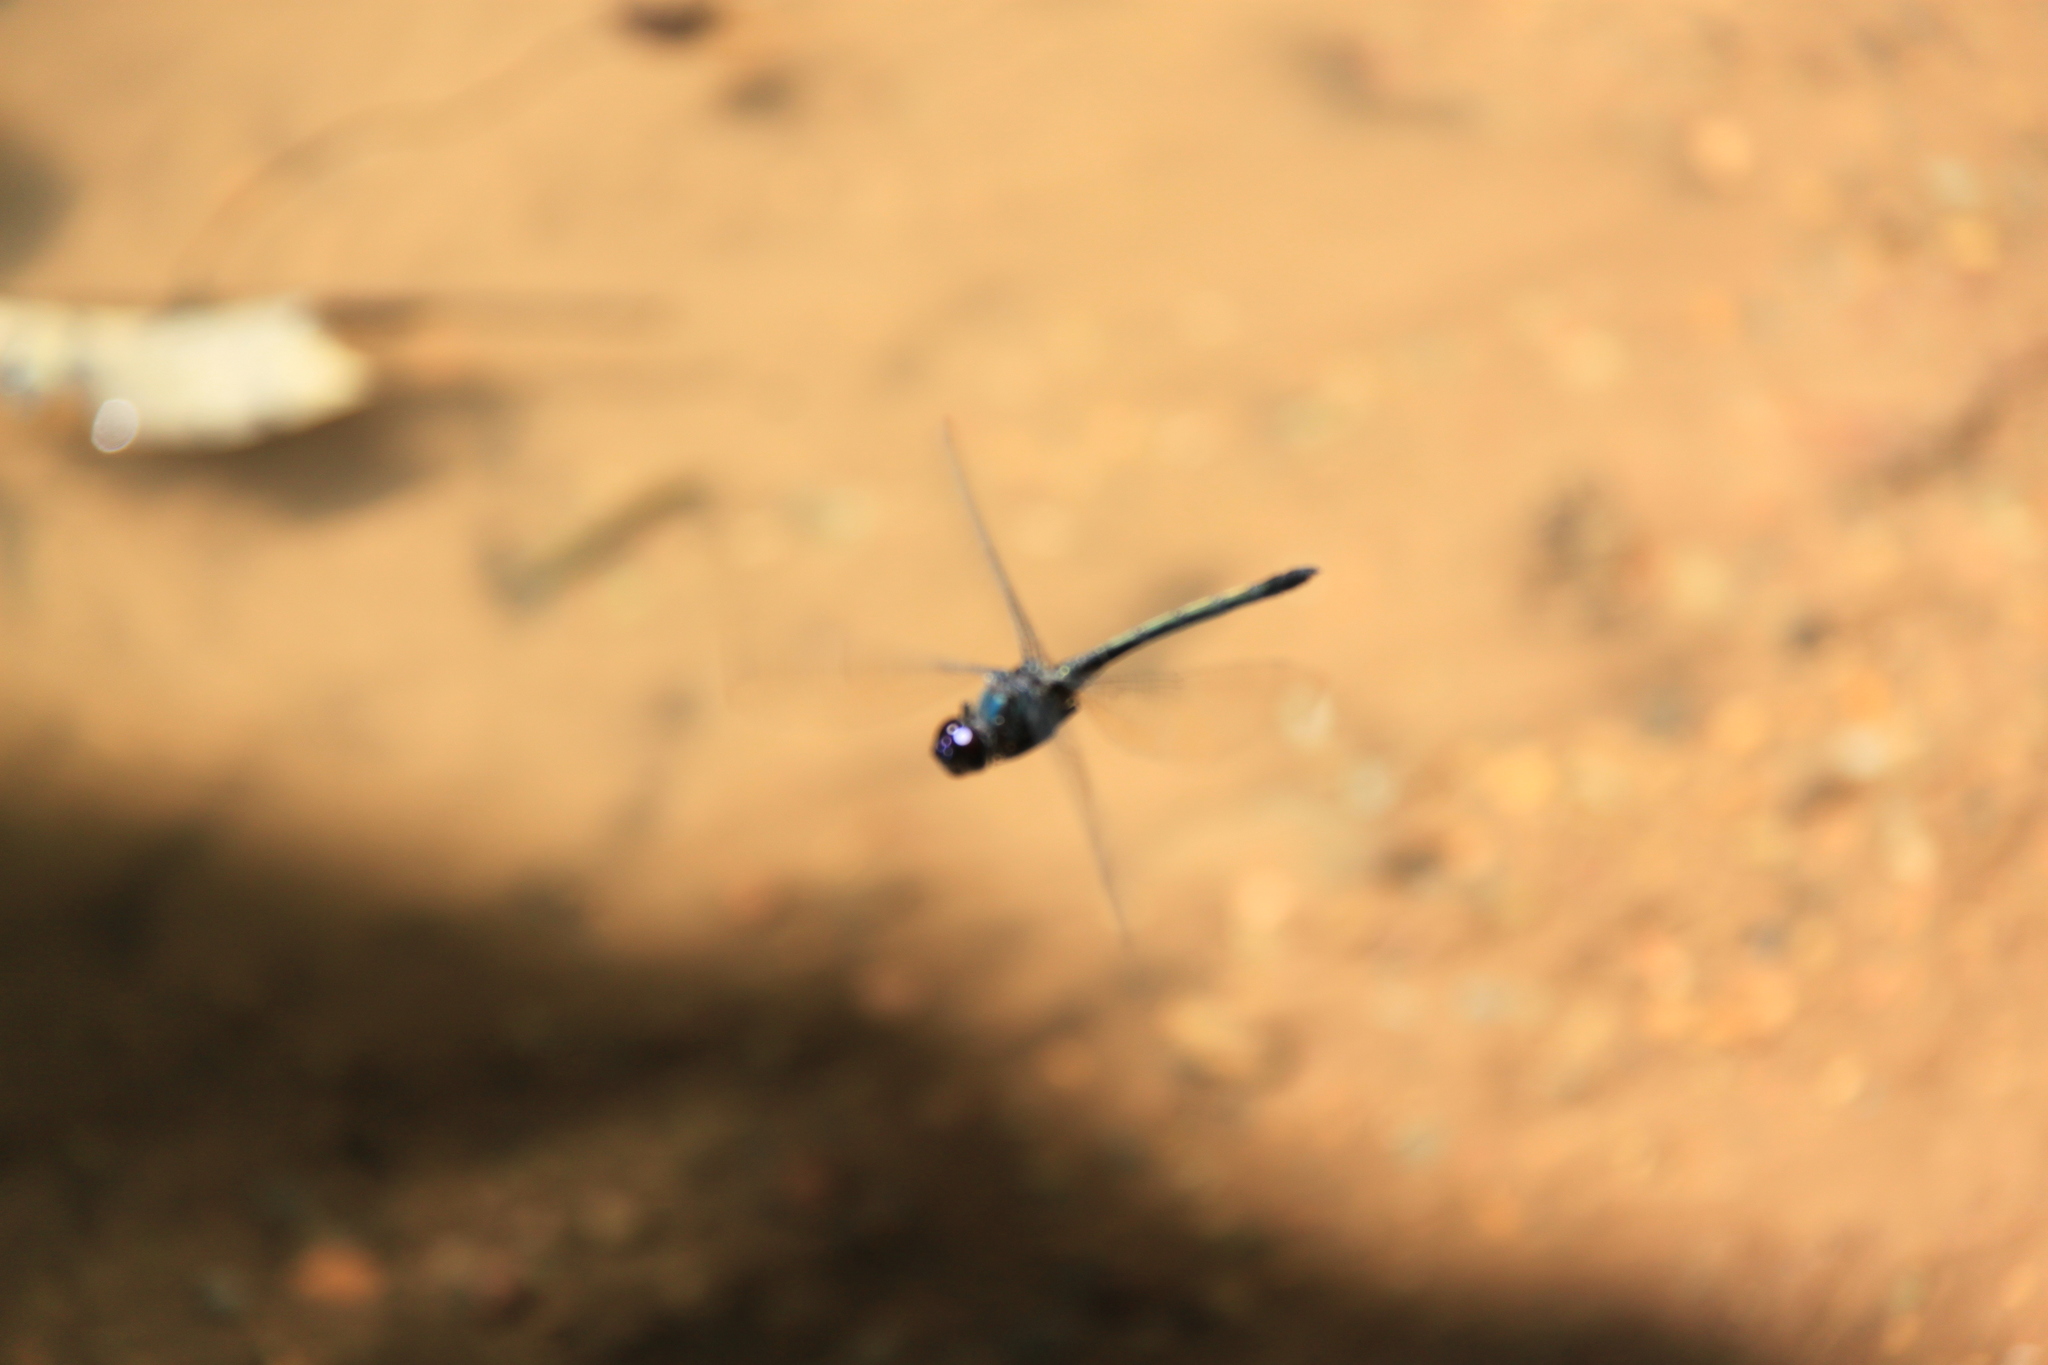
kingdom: Animalia
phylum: Arthropoda
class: Insecta
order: Odonata
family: Libellulidae
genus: Zygonyx
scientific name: Zygonyx iris
